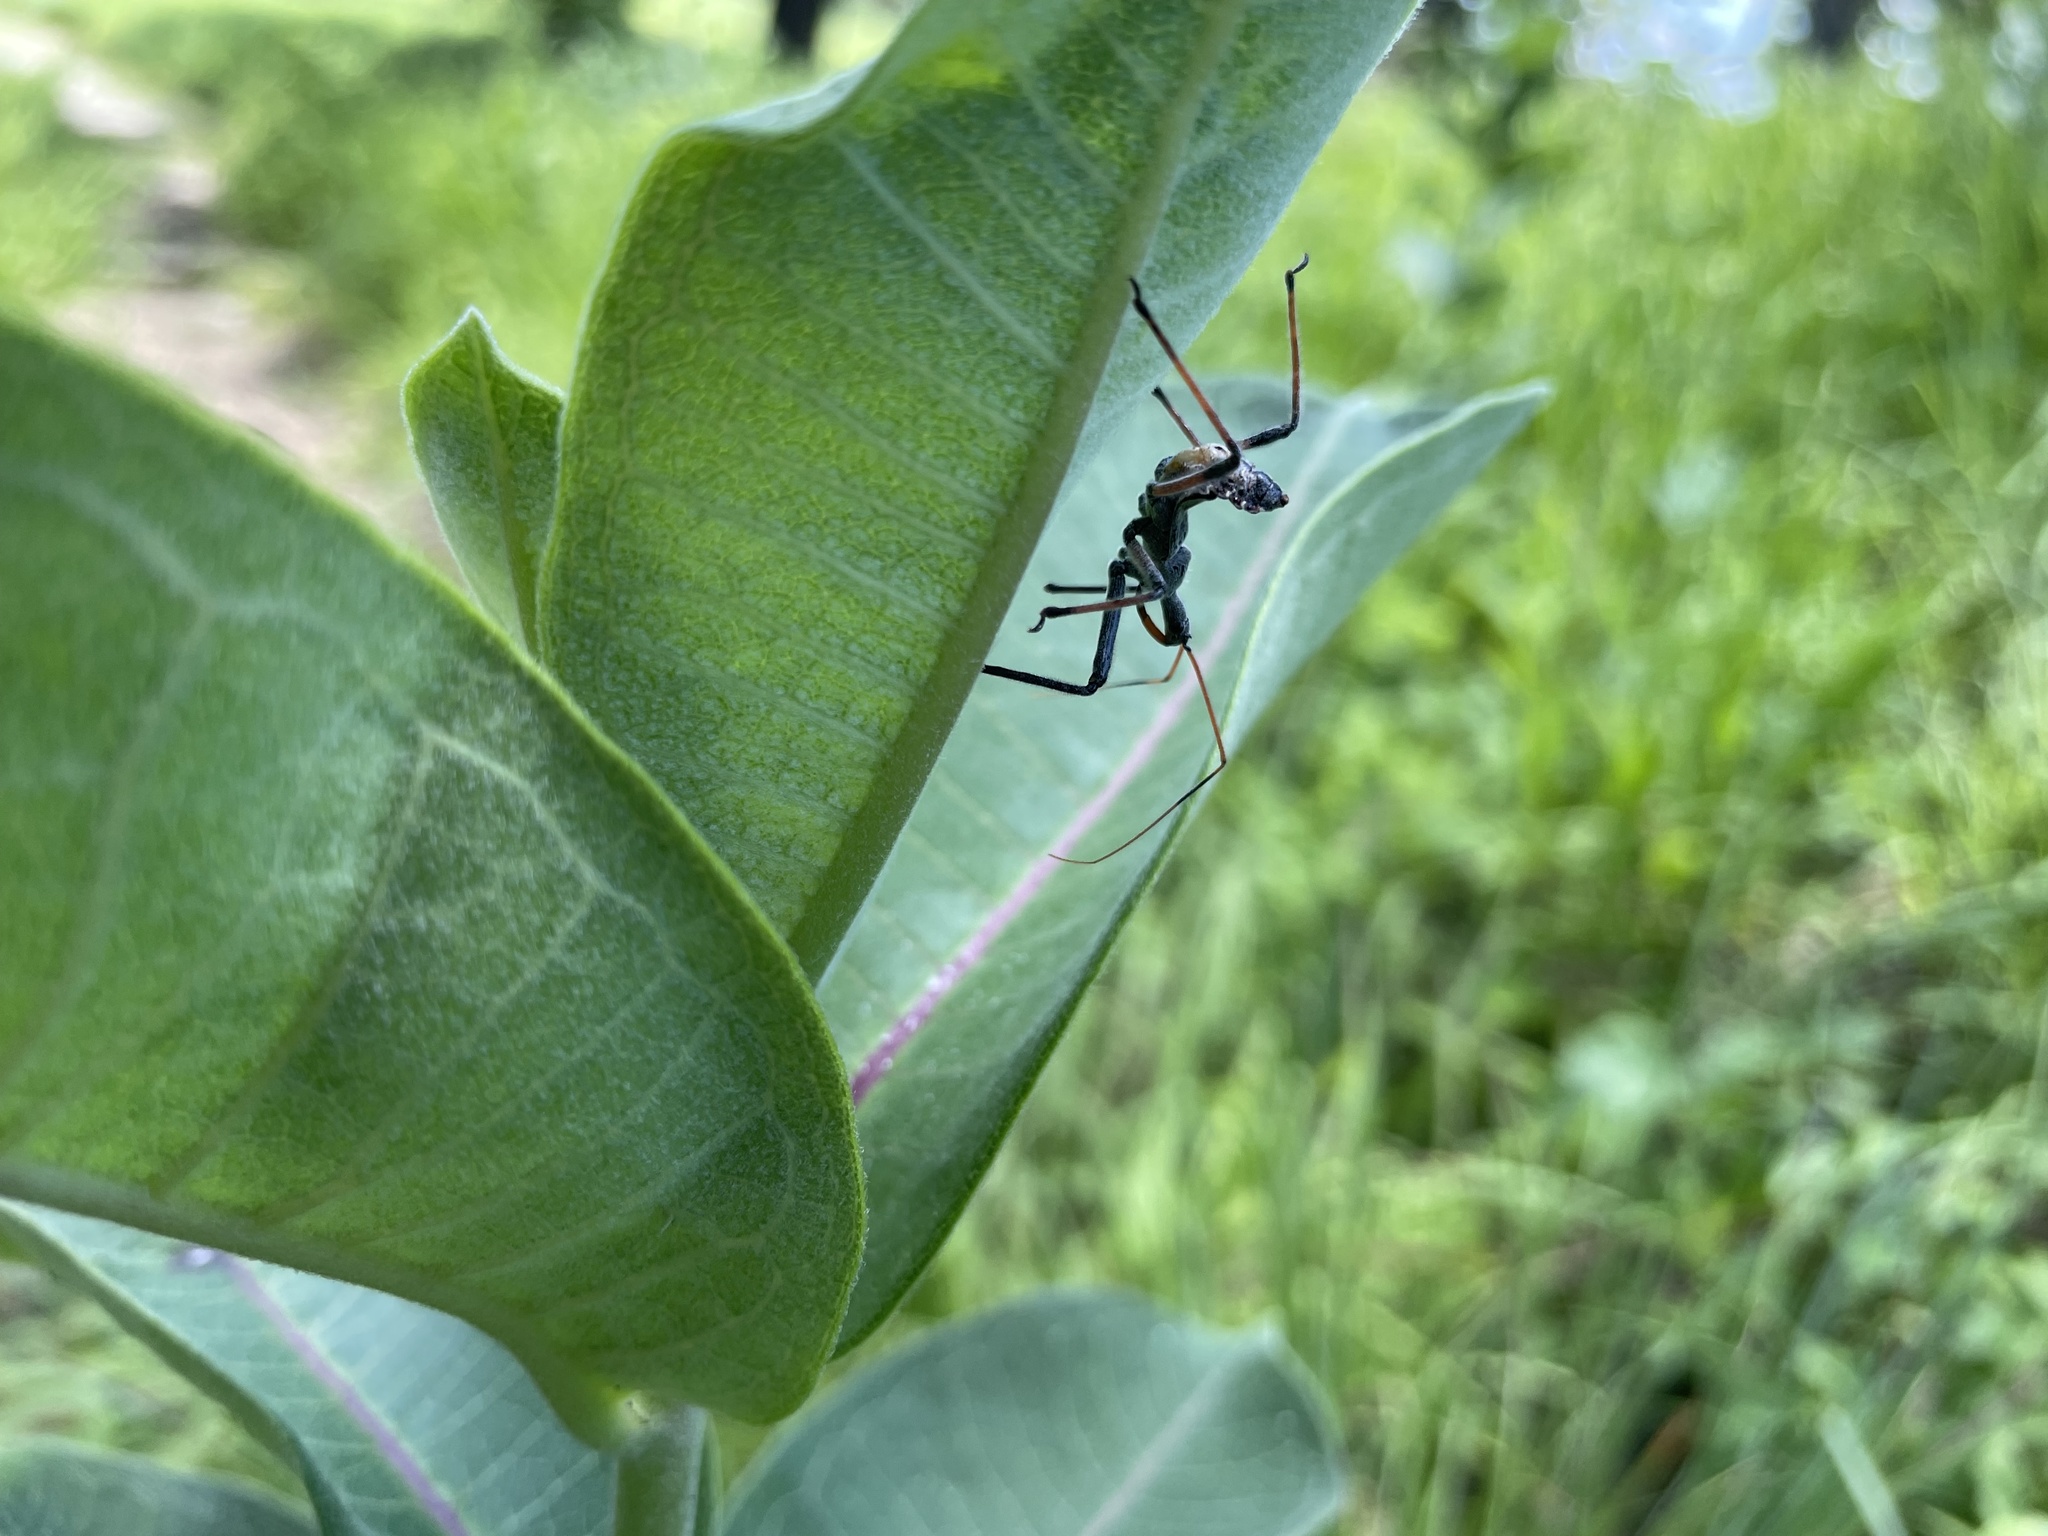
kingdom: Animalia
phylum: Arthropoda
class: Insecta
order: Hemiptera
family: Reduviidae
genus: Arilus
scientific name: Arilus cristatus
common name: North american wheel bug
